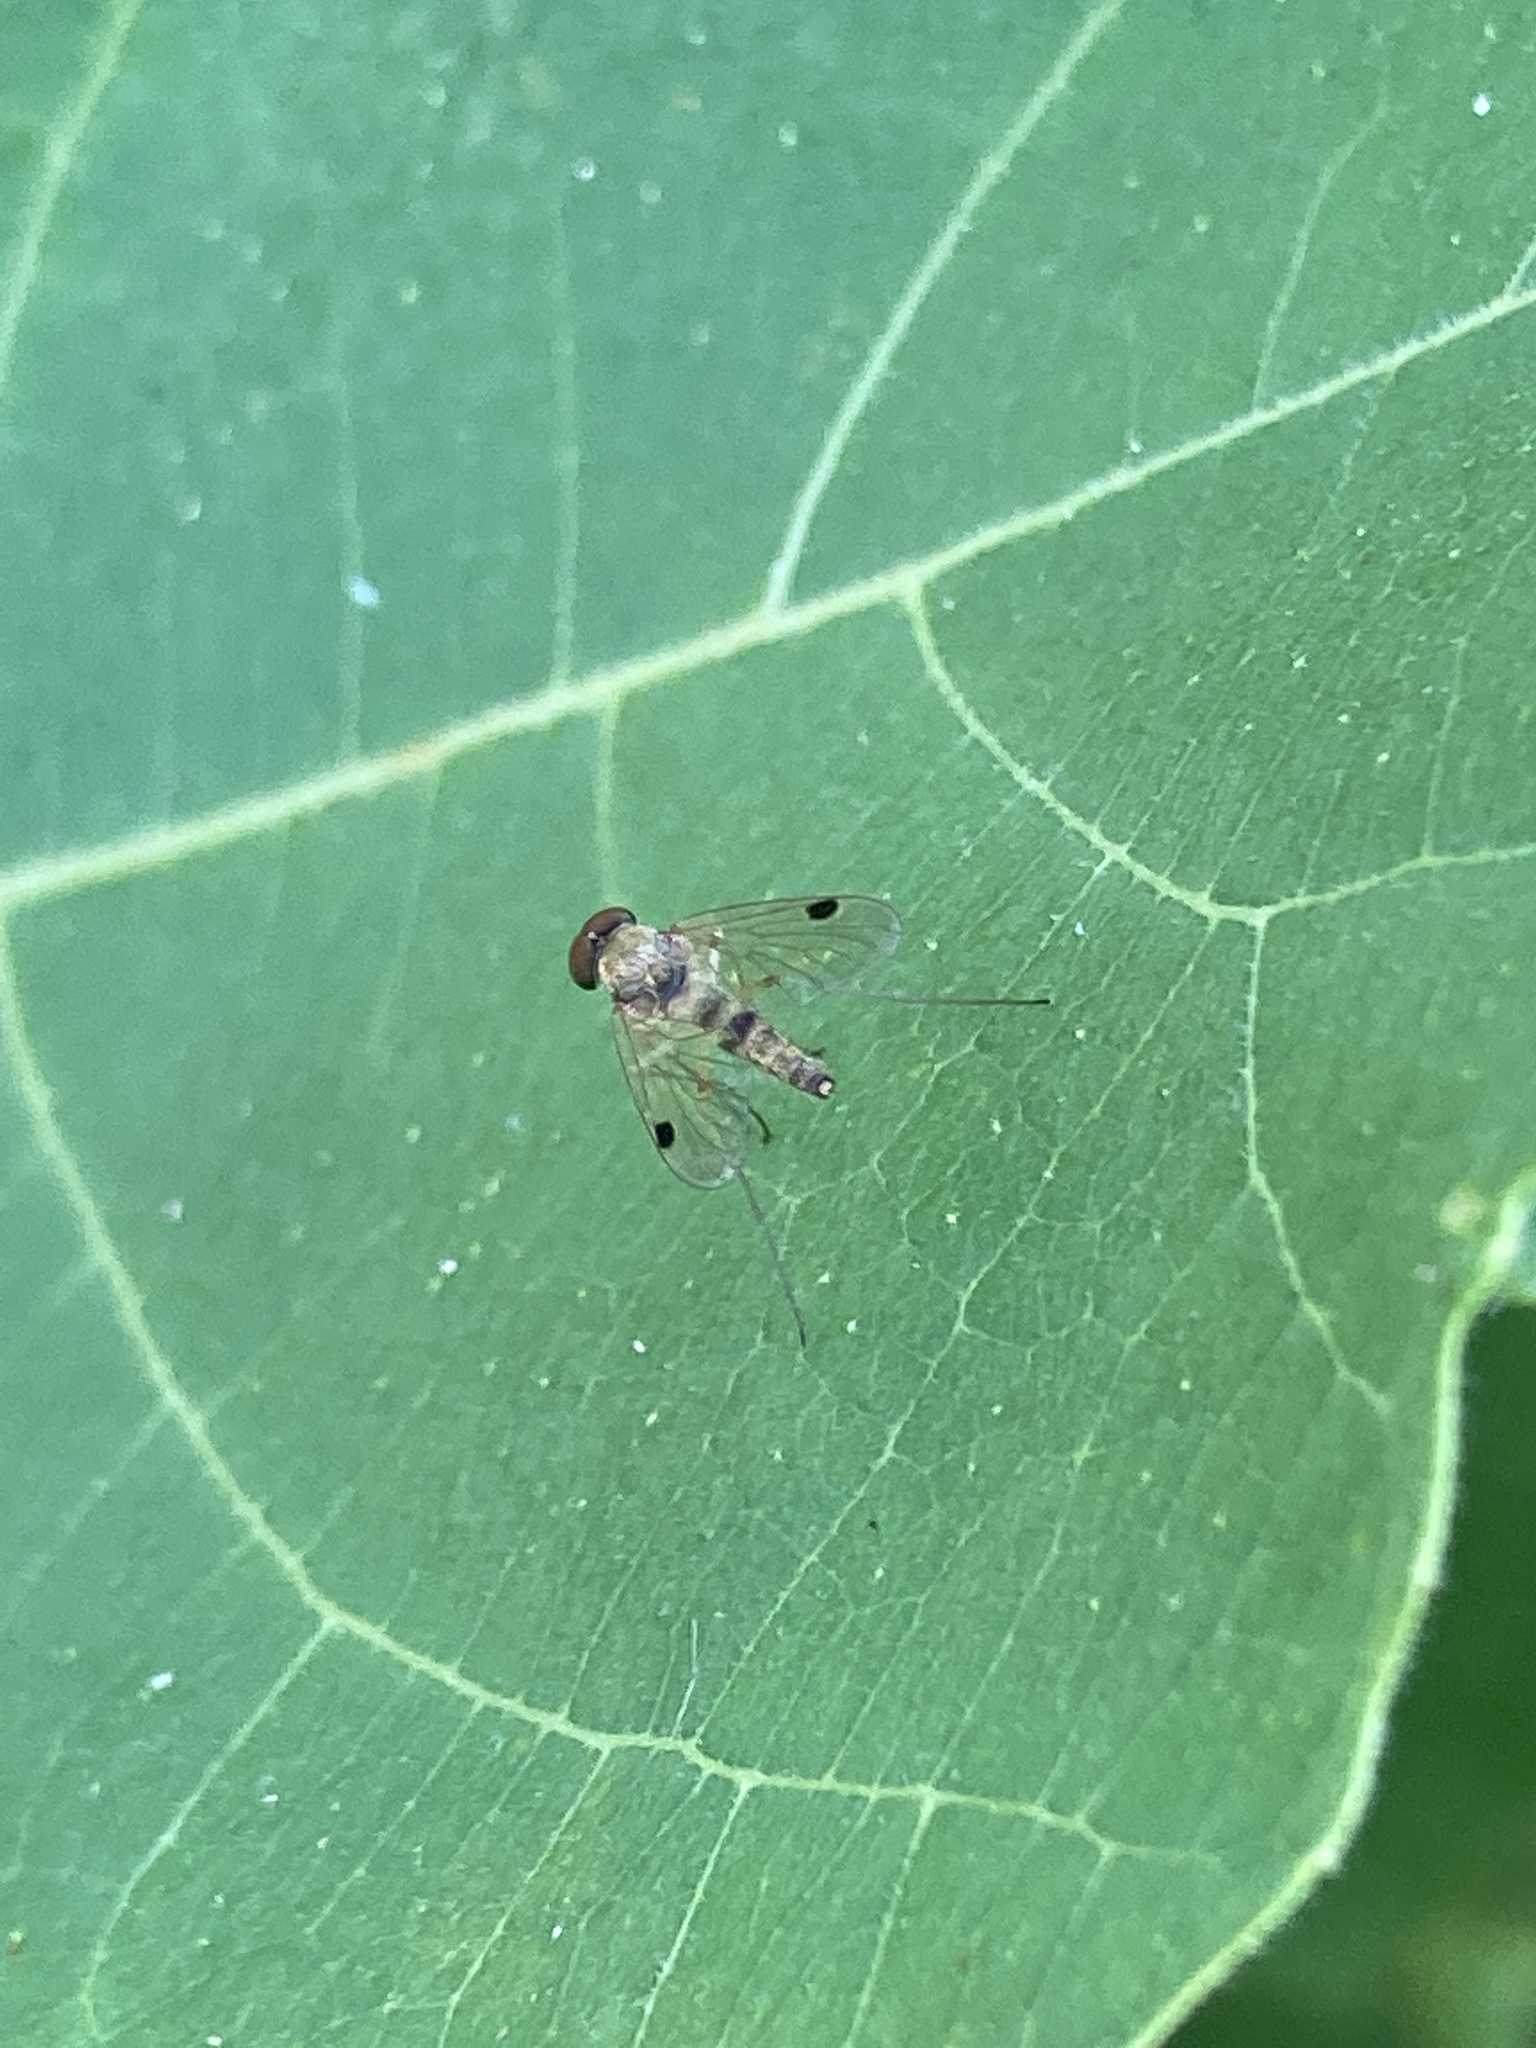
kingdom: Animalia
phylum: Arthropoda
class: Insecta
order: Diptera
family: Rhagionidae
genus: Chrysopilus
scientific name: Chrysopilus modestus
